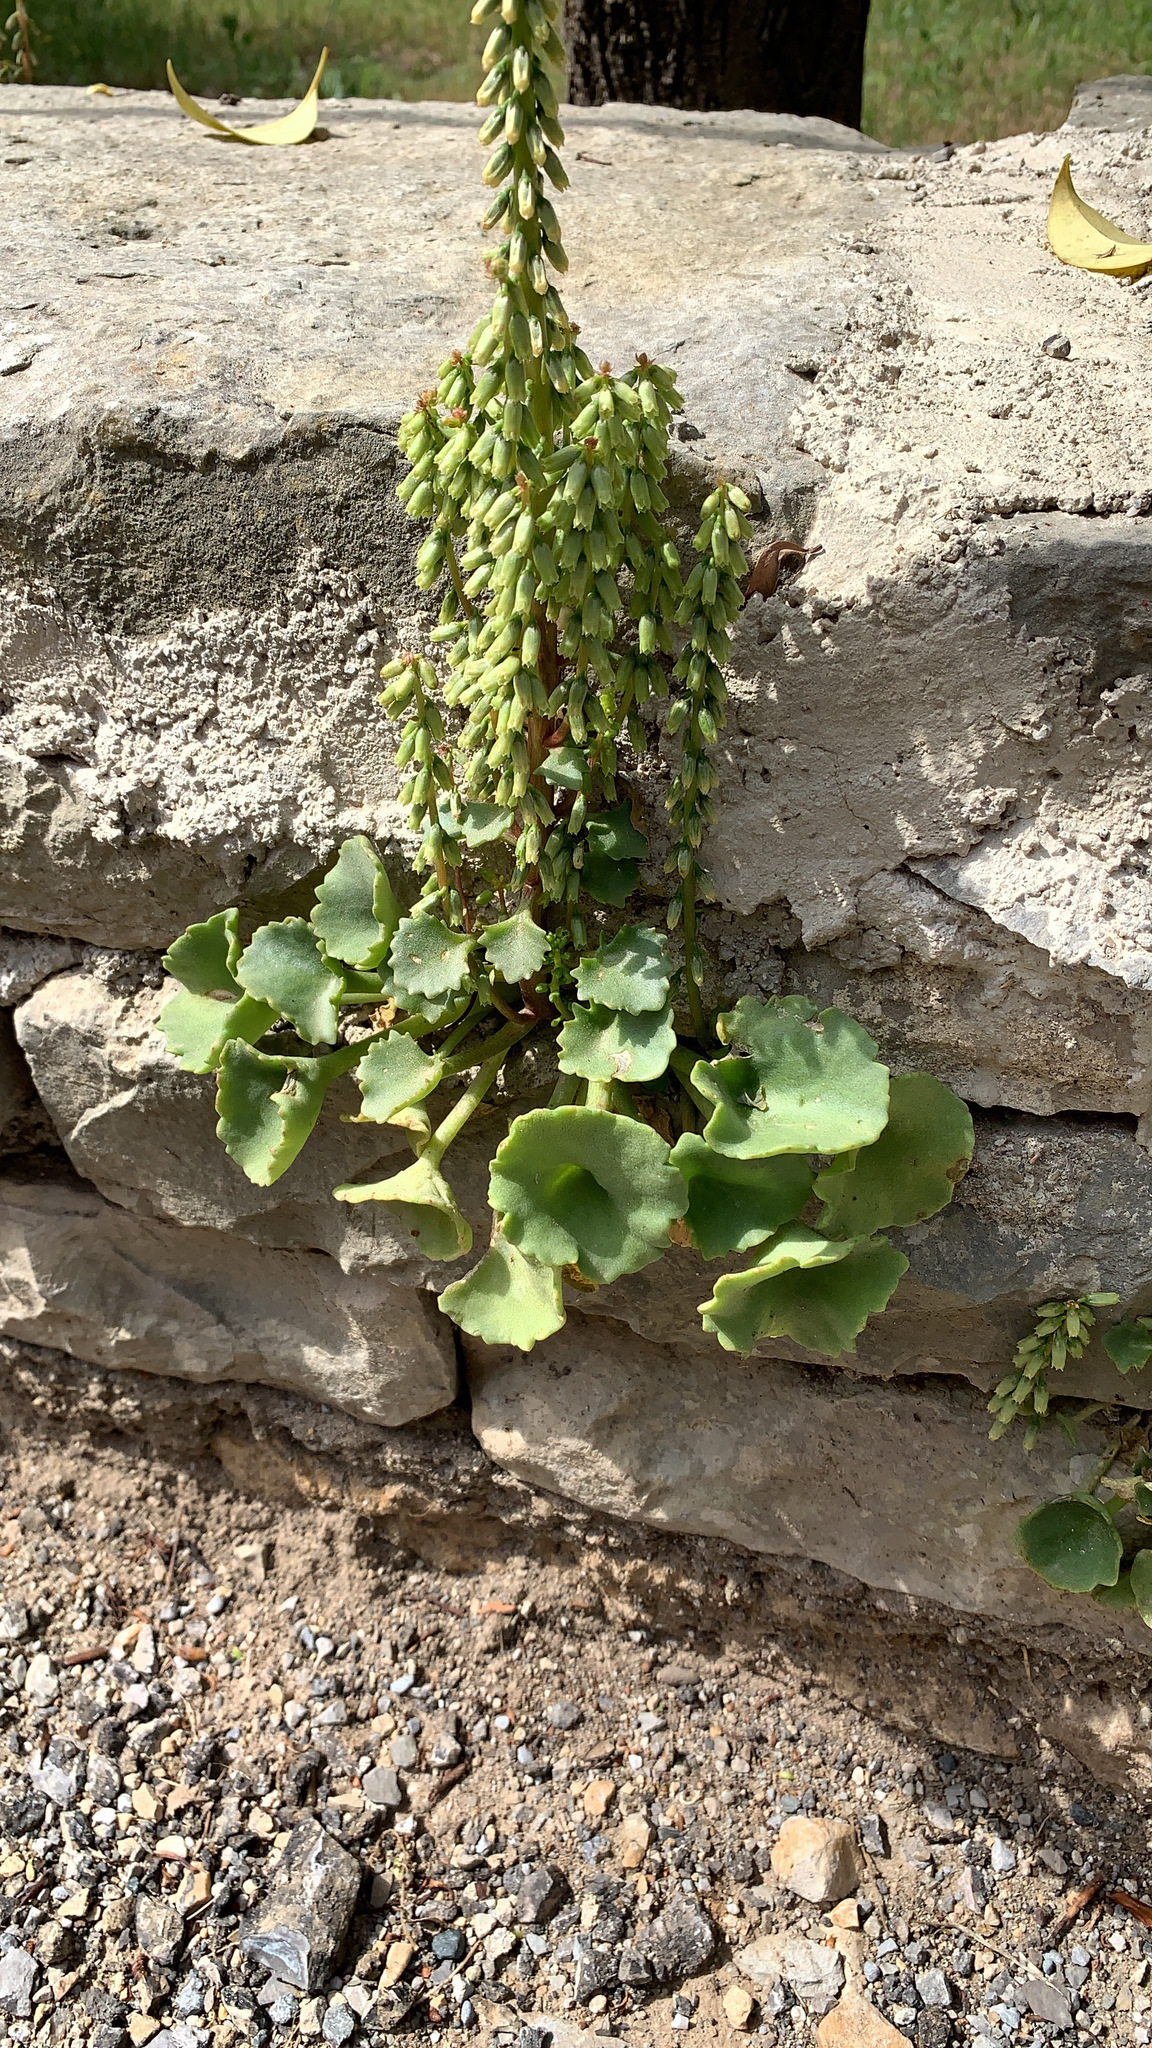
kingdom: Plantae
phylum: Tracheophyta
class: Magnoliopsida
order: Saxifragales
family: Crassulaceae
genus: Umbilicus
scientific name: Umbilicus rupestris
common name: Navelwort
